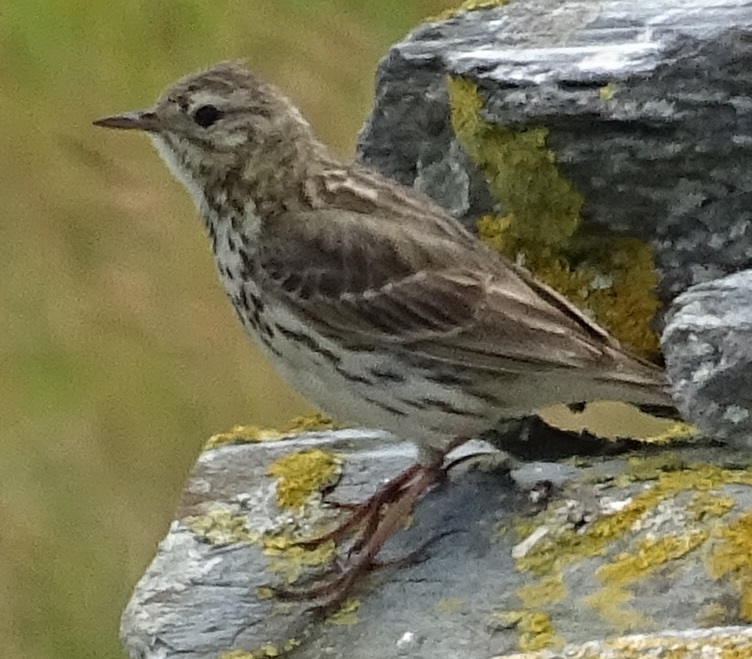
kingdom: Animalia
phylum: Chordata
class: Aves
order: Passeriformes
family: Motacillidae
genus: Anthus
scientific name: Anthus pratensis
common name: Meadow pipit
